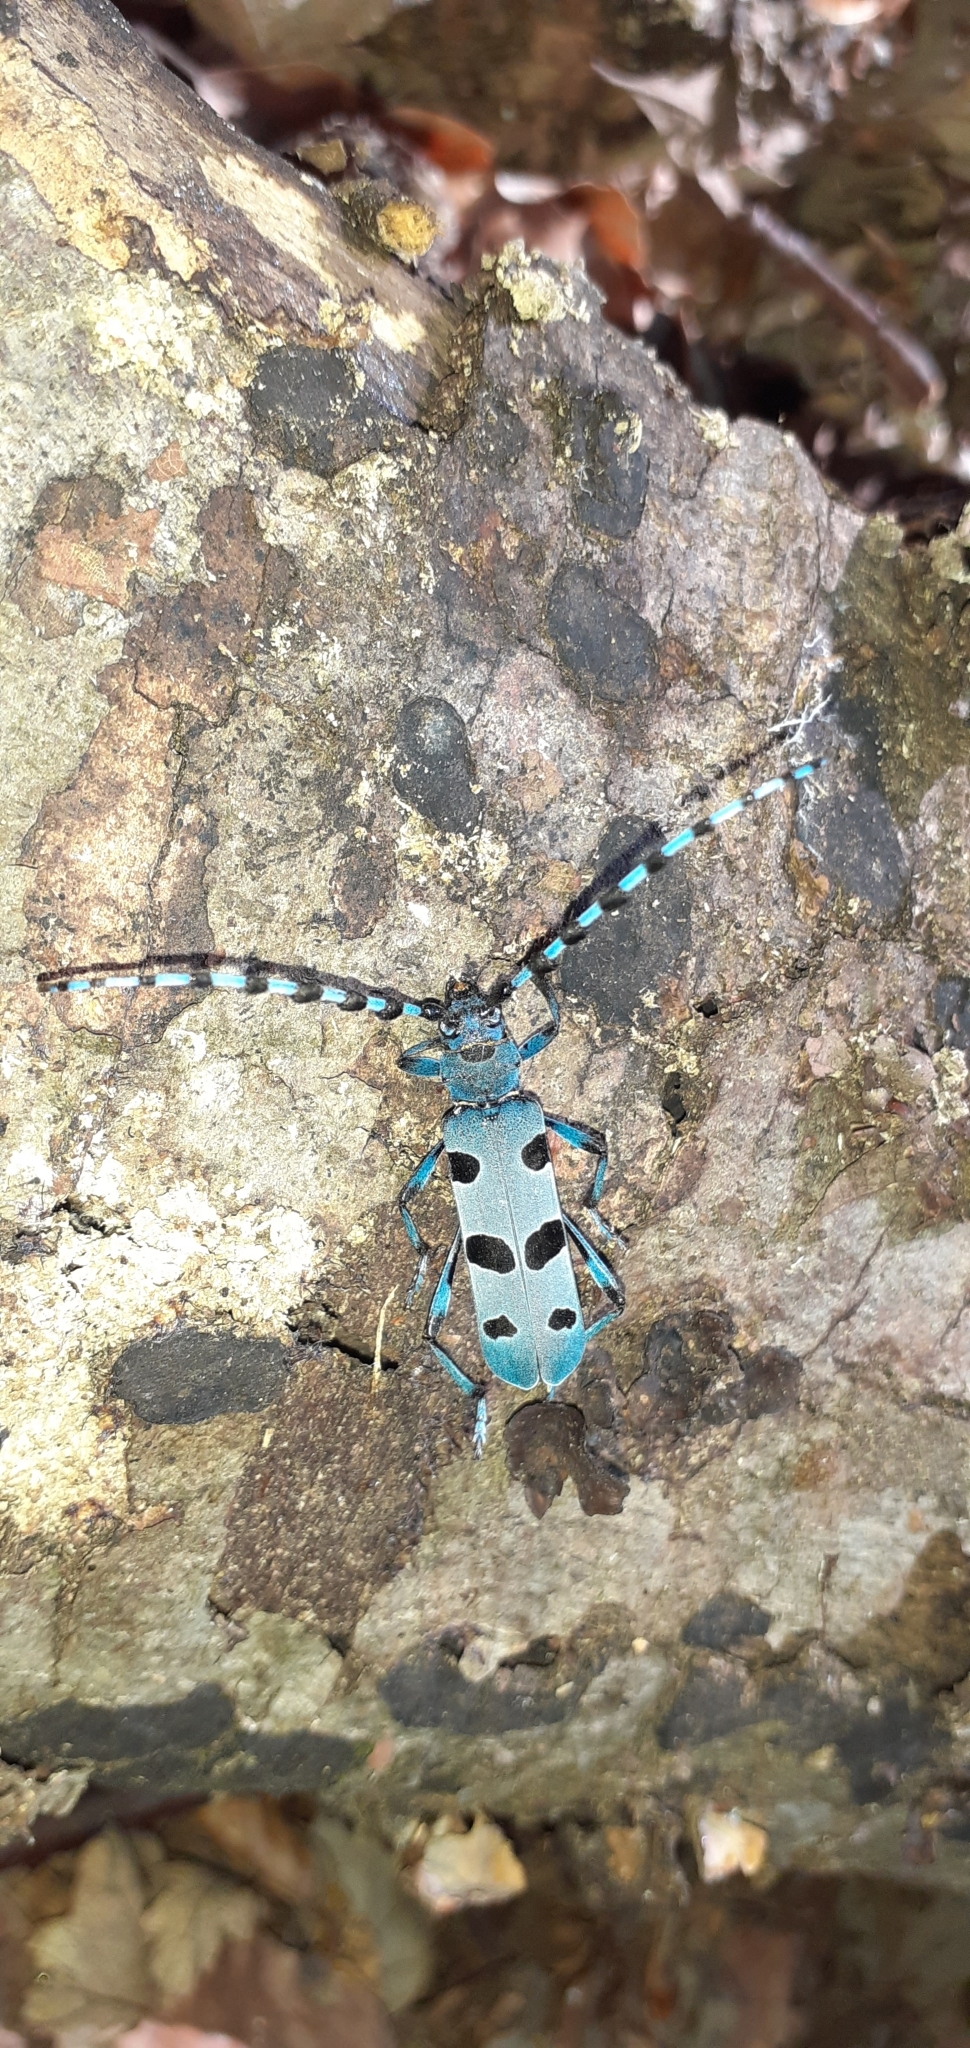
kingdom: Animalia
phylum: Arthropoda
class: Insecta
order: Coleoptera
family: Cerambycidae
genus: Rosalia
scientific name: Rosalia alpina
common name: Rosalia longicorn
